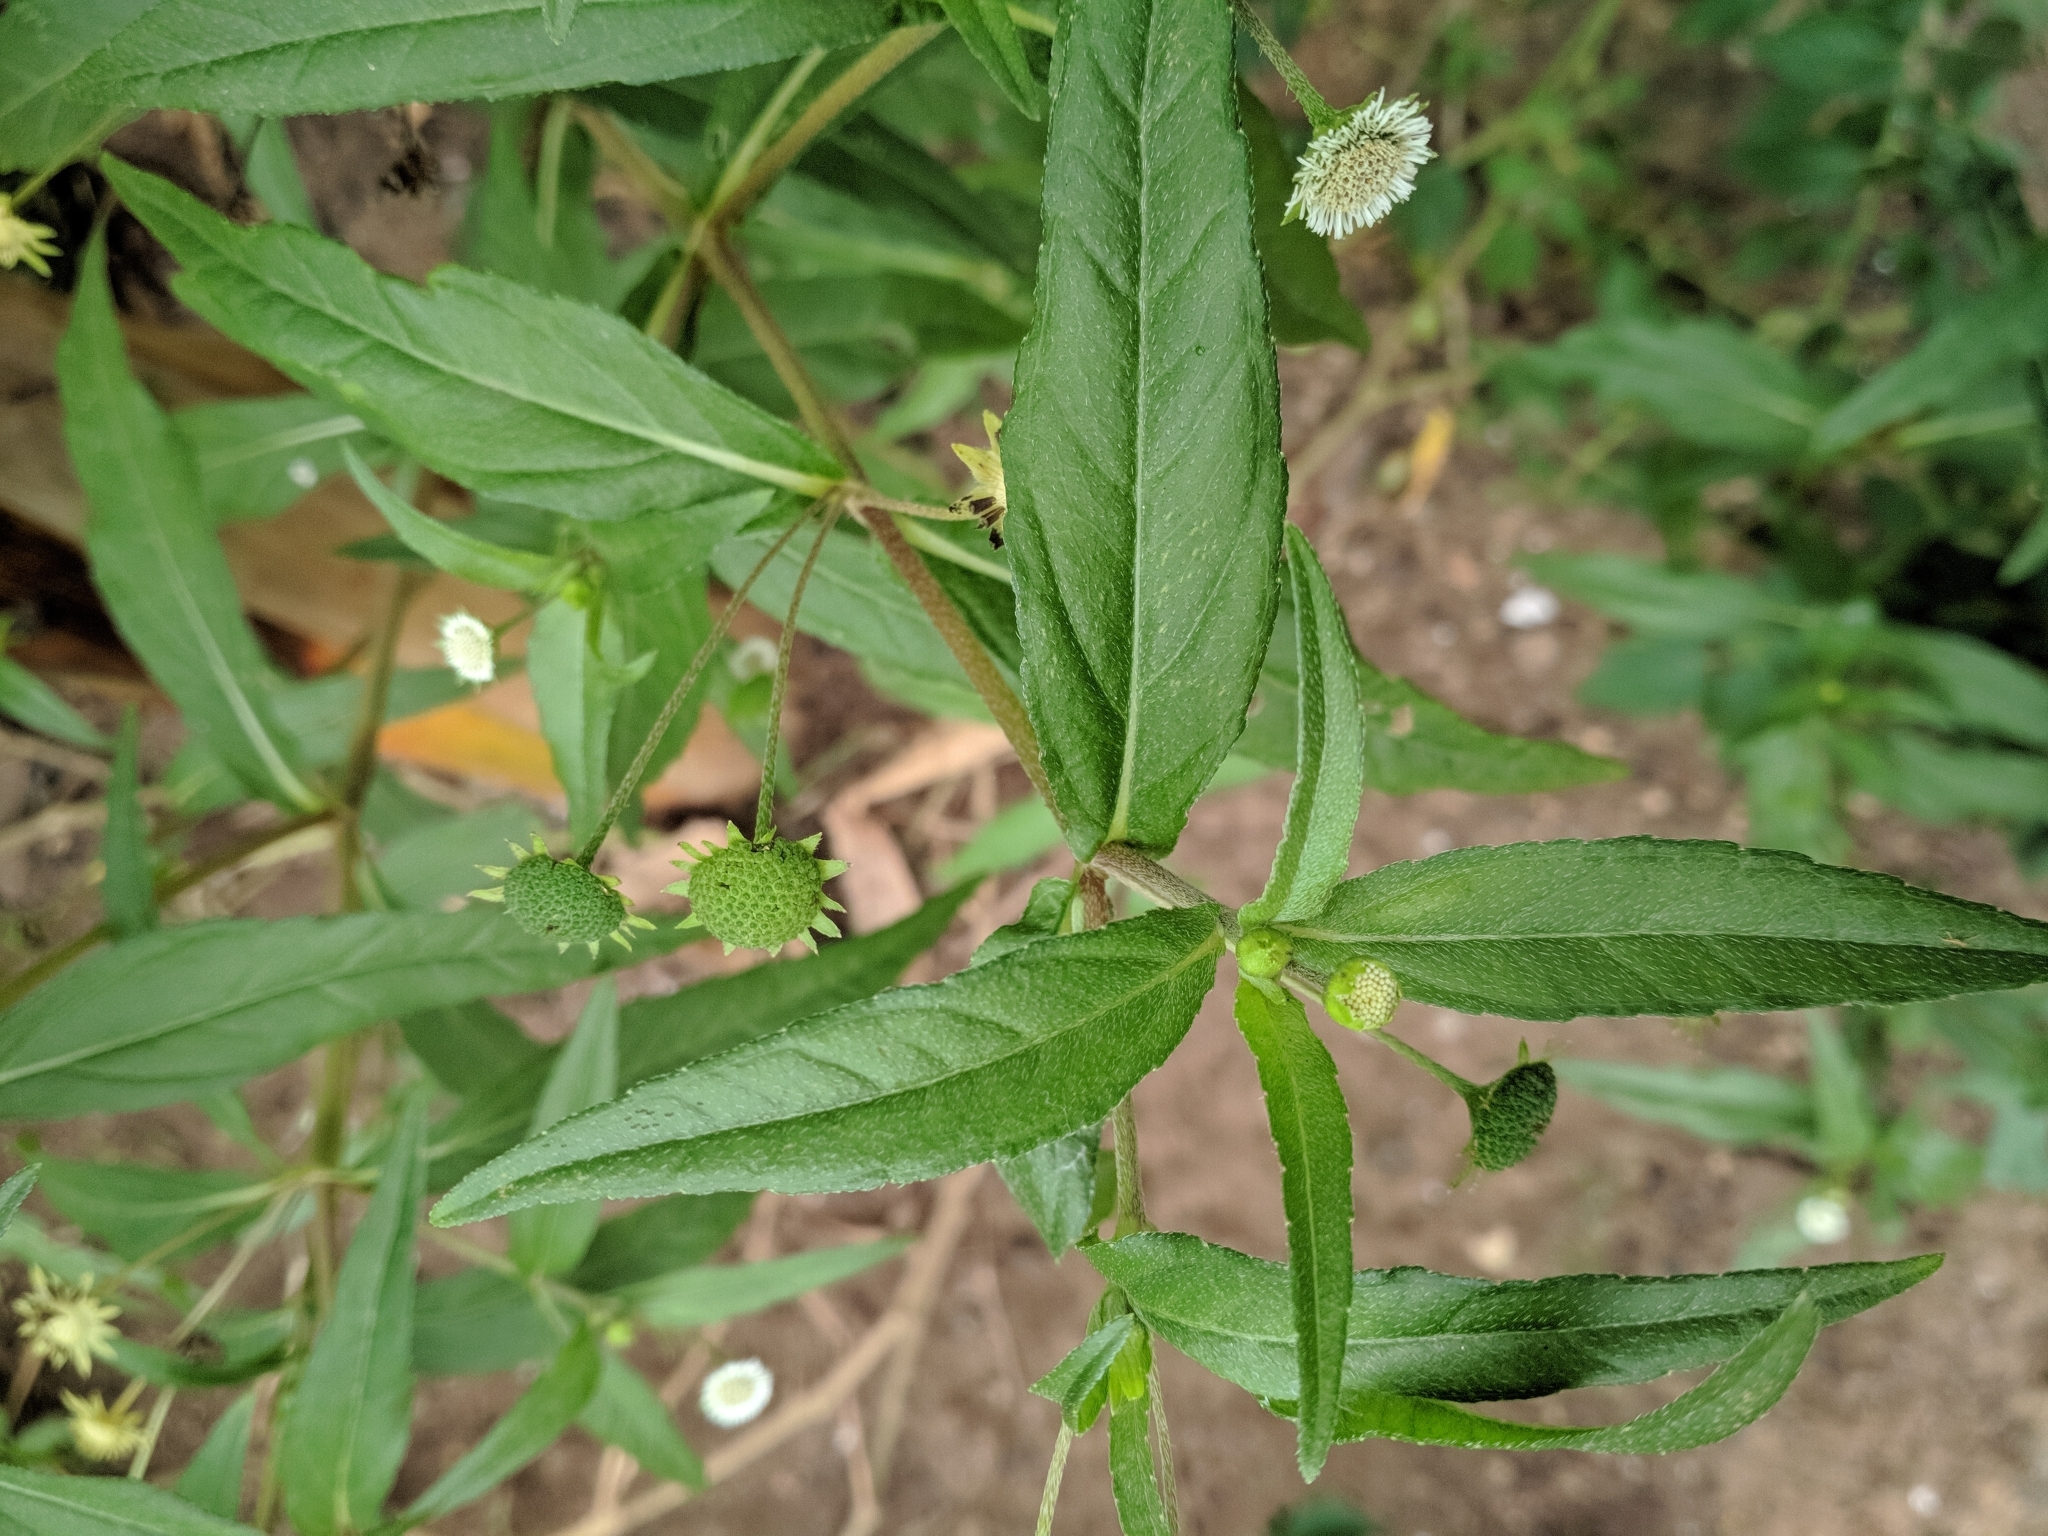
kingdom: Plantae
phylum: Tracheophyta
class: Magnoliopsida
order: Asterales
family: Asteraceae
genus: Eclipta
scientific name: Eclipta prostrata
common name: False daisy
